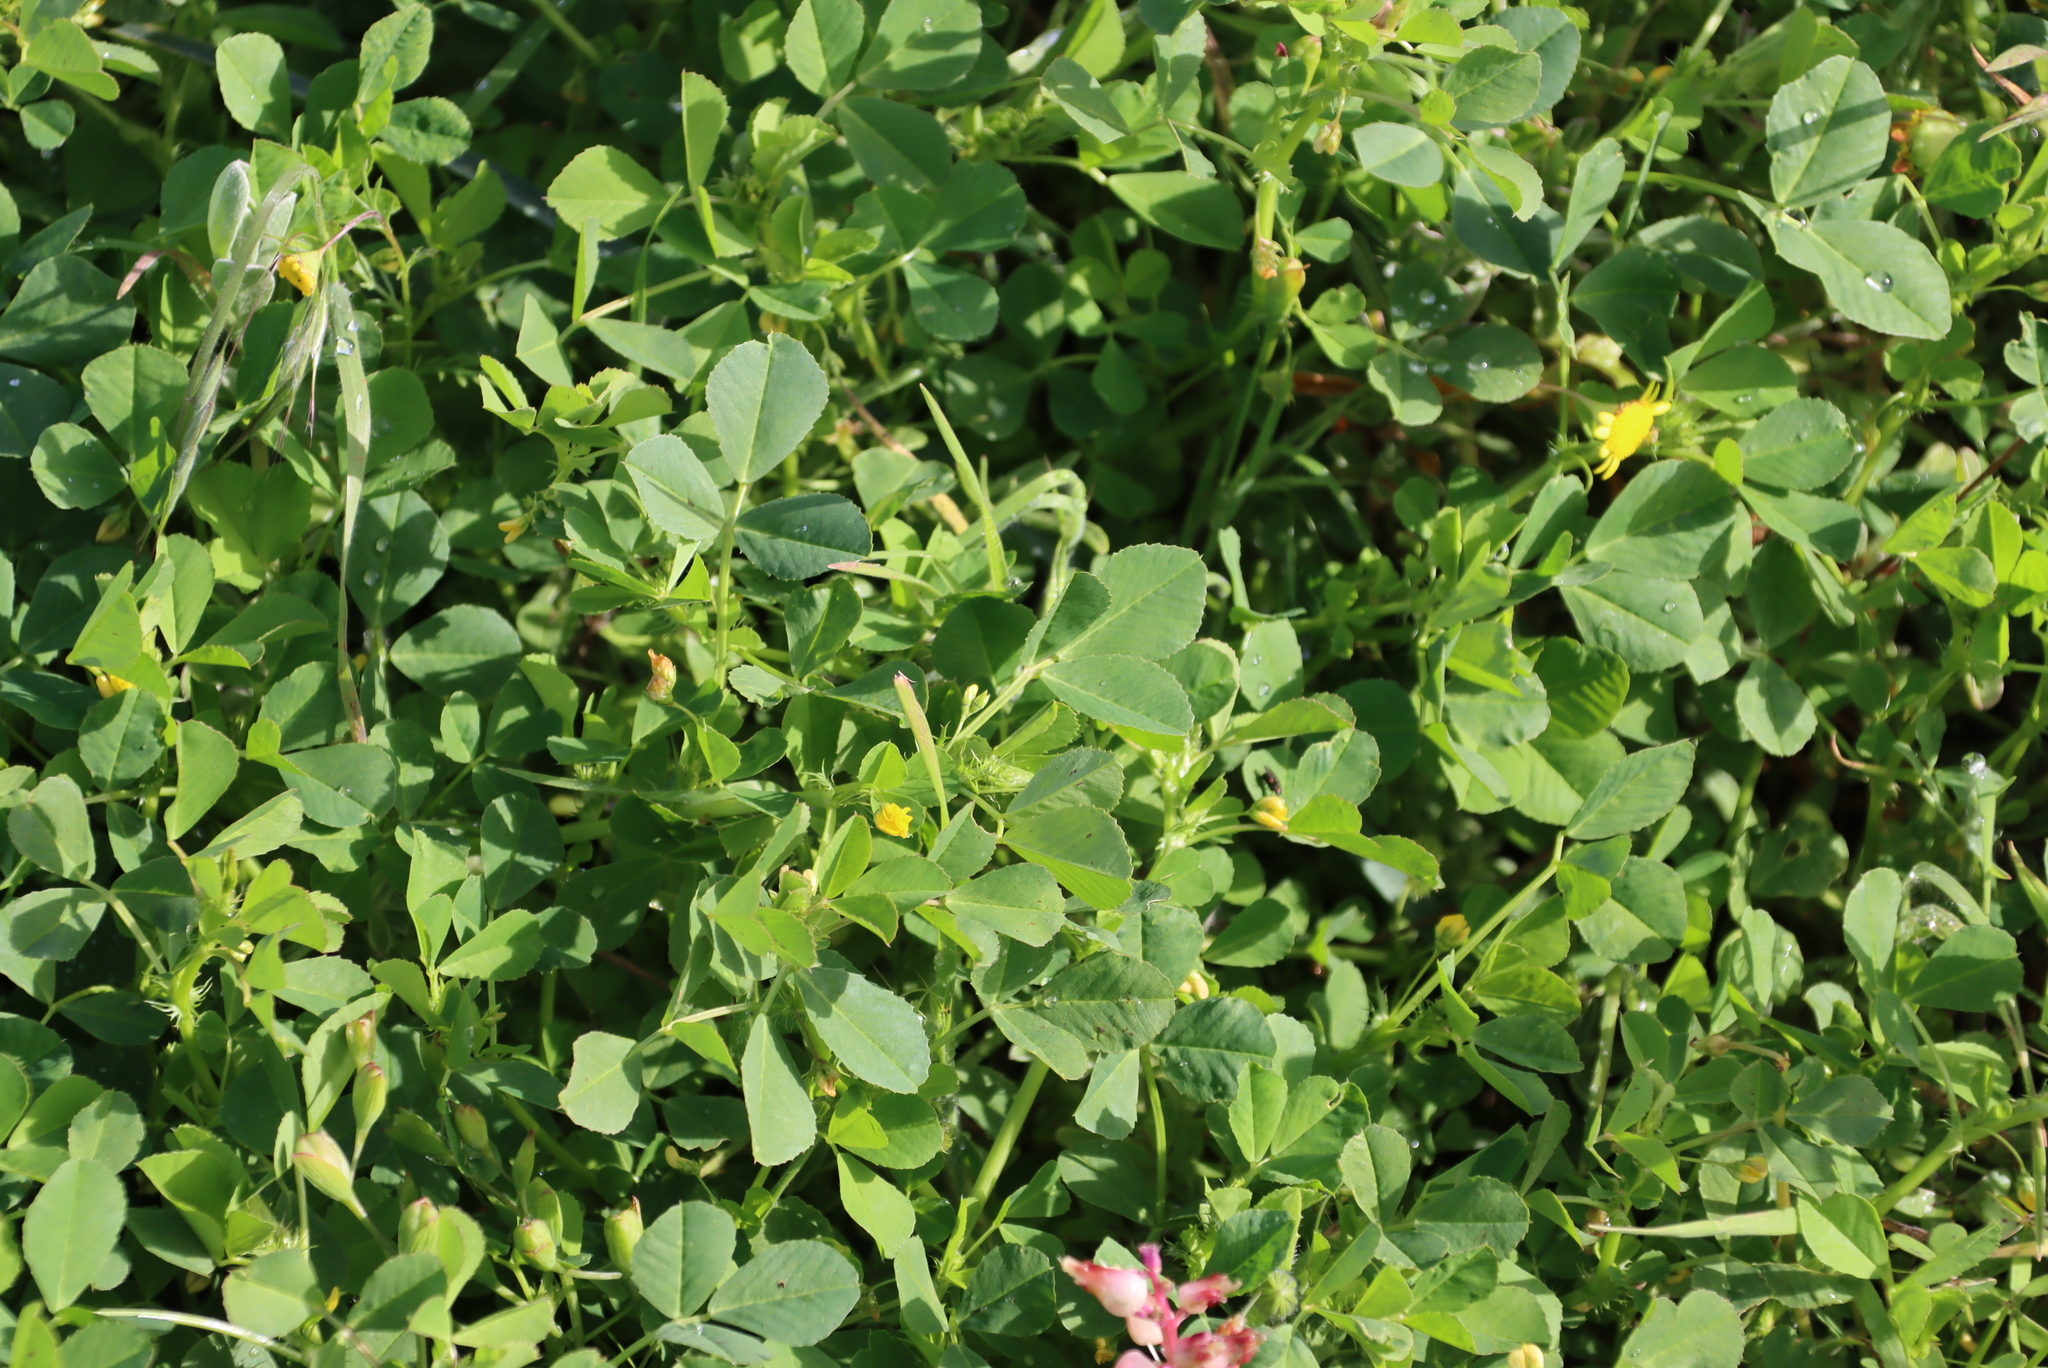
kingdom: Plantae
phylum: Tracheophyta
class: Magnoliopsida
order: Fabales
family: Fabaceae
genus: Medicago
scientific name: Medicago polymorpha
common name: Burclover
